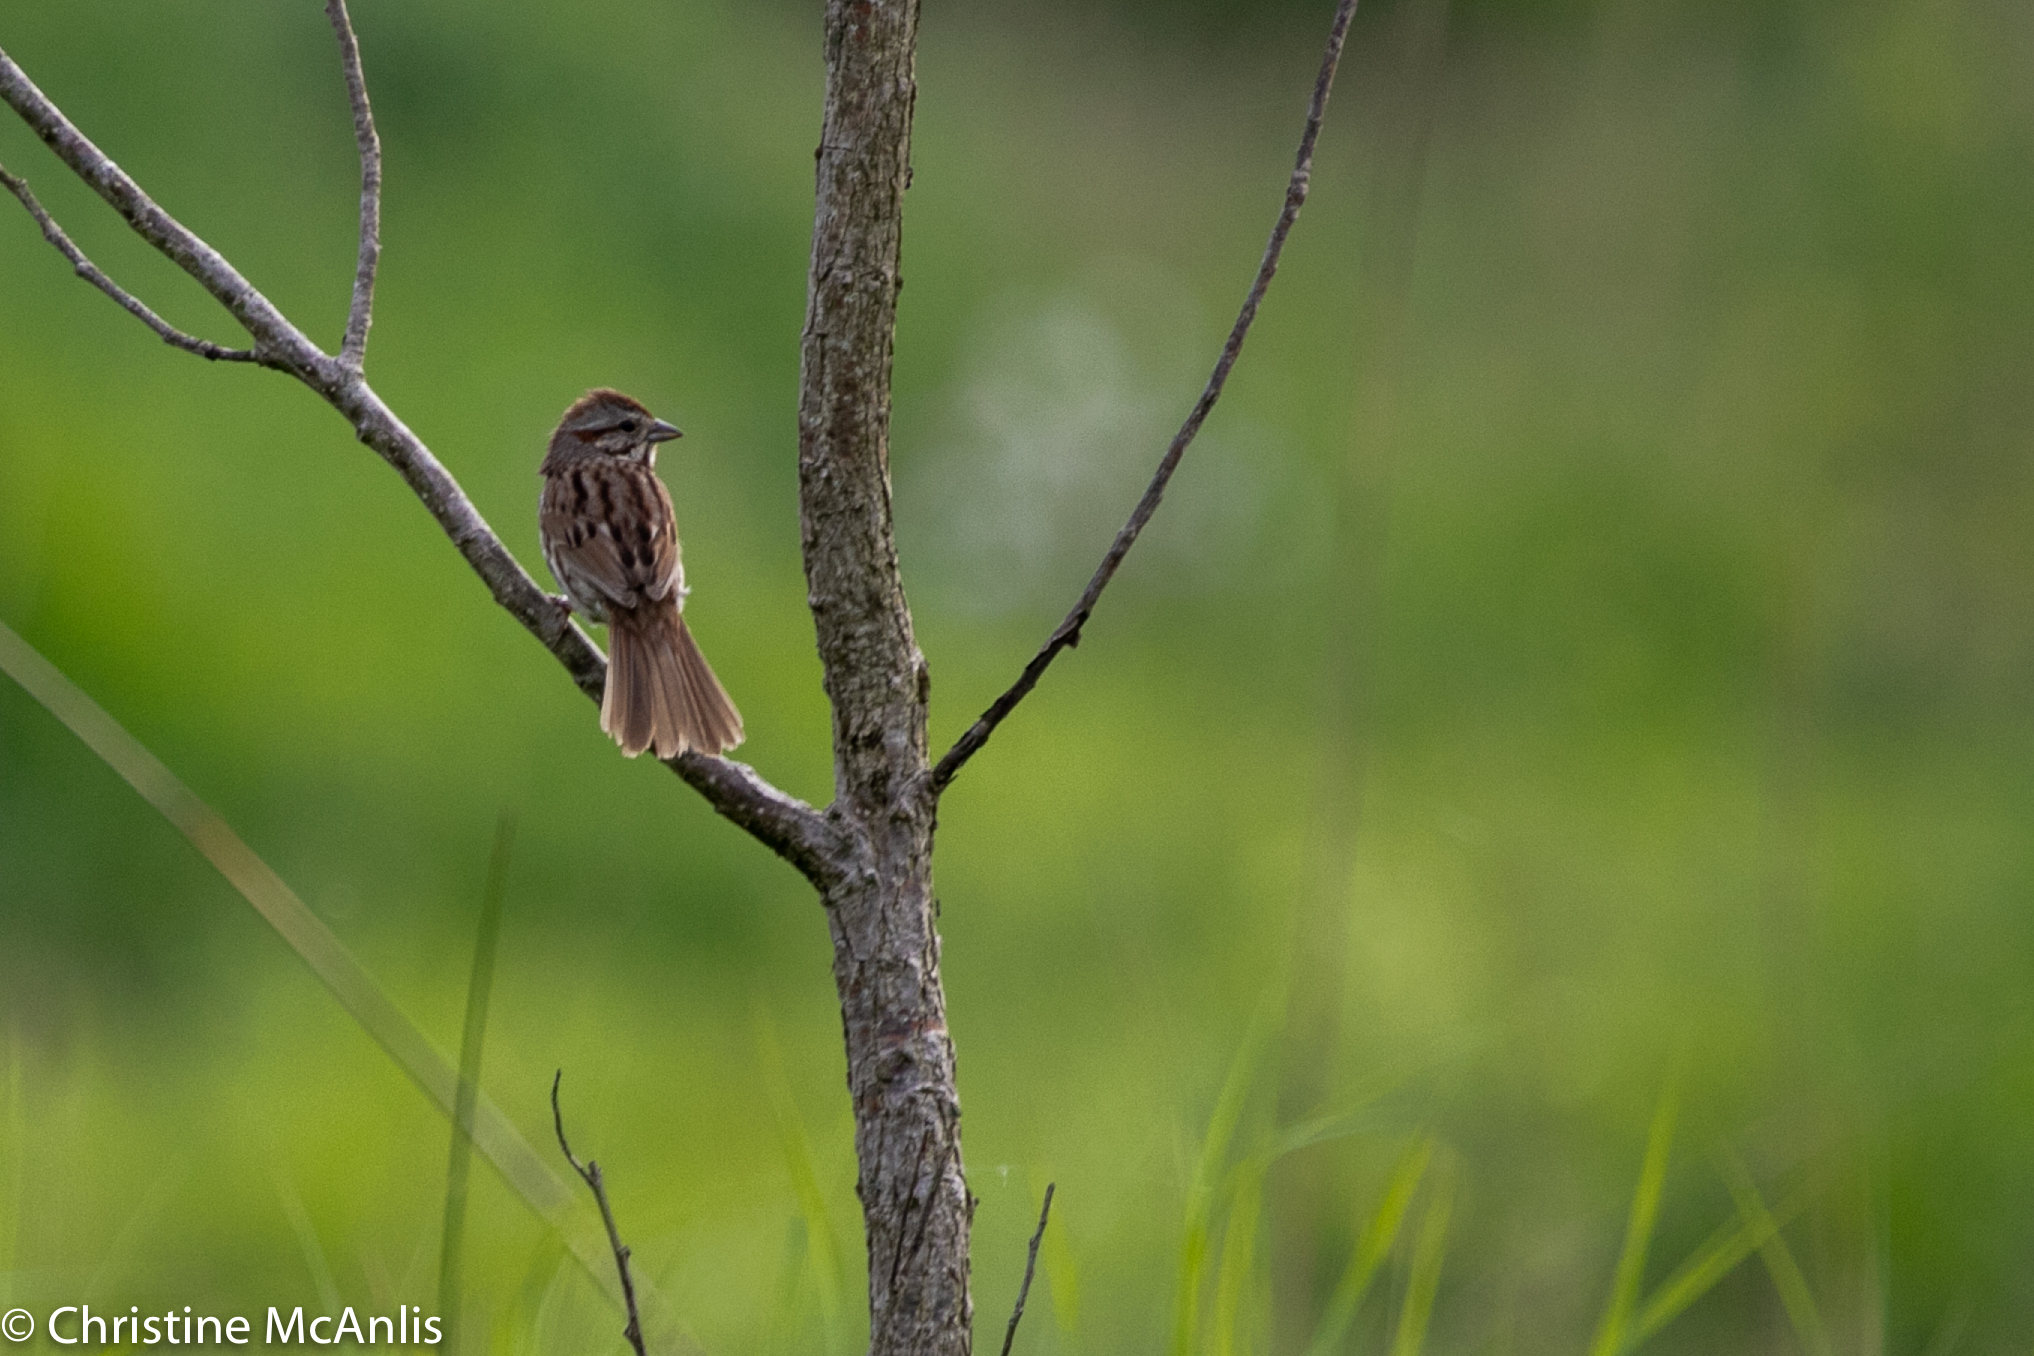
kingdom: Animalia
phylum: Chordata
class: Aves
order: Passeriformes
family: Passerellidae
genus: Melospiza
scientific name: Melospiza melodia
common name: Song sparrow
